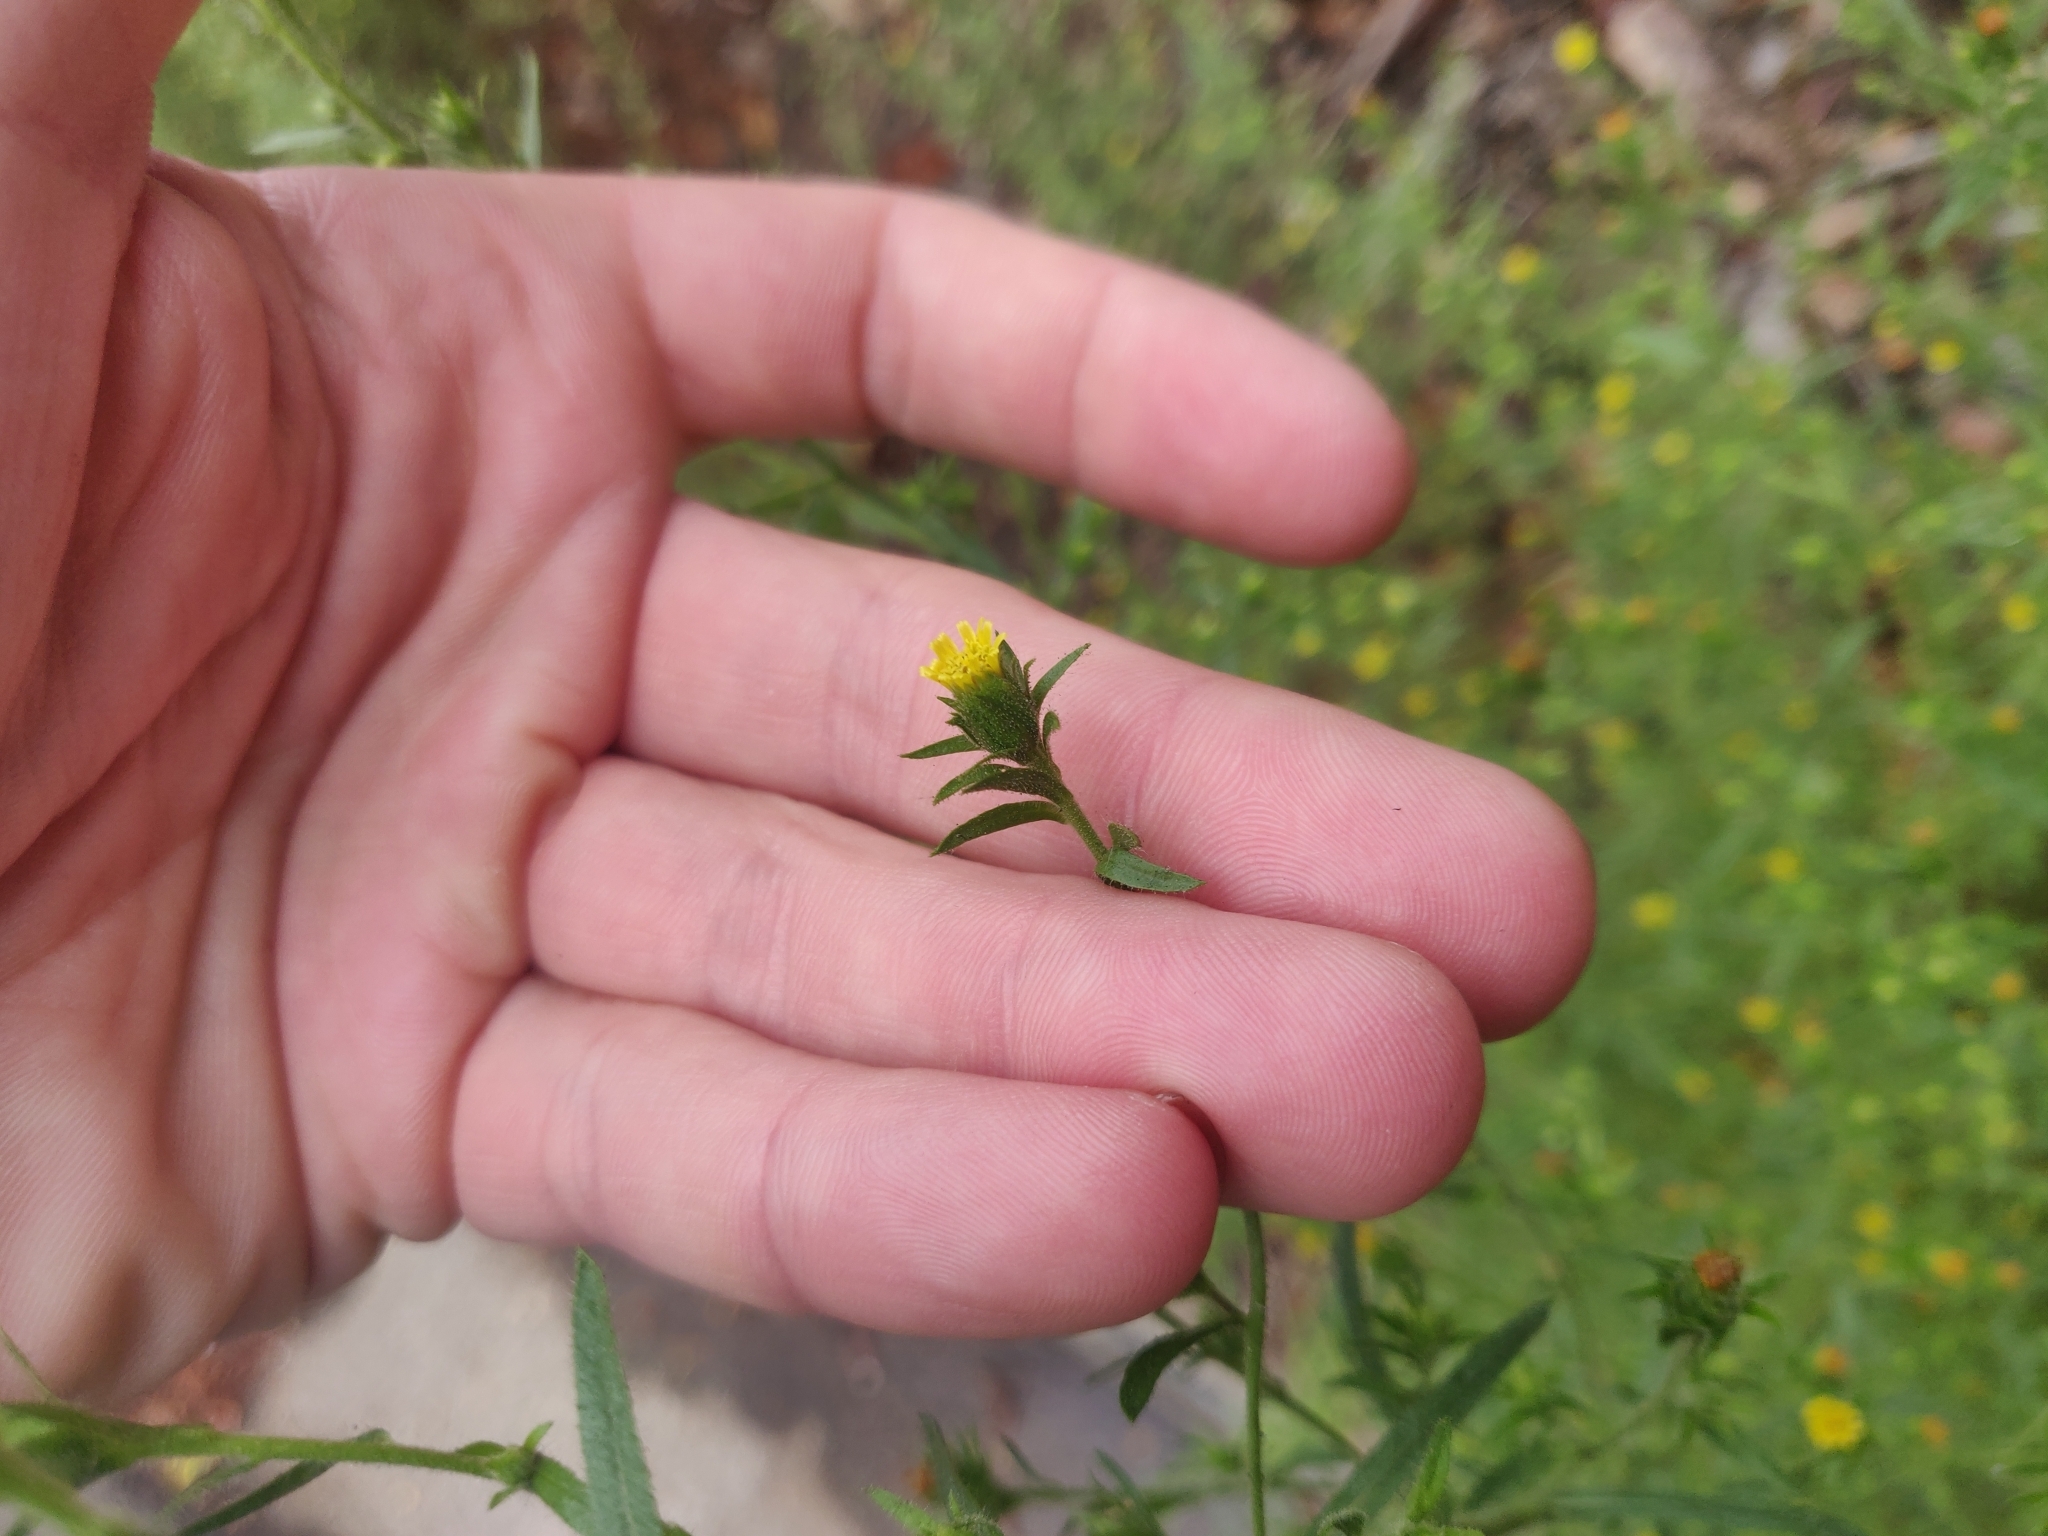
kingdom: Plantae
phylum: Tracheophyta
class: Magnoliopsida
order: Asterales
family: Asteraceae
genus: Dittrichia
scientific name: Dittrichia graveolens
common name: Stinking fleabane
